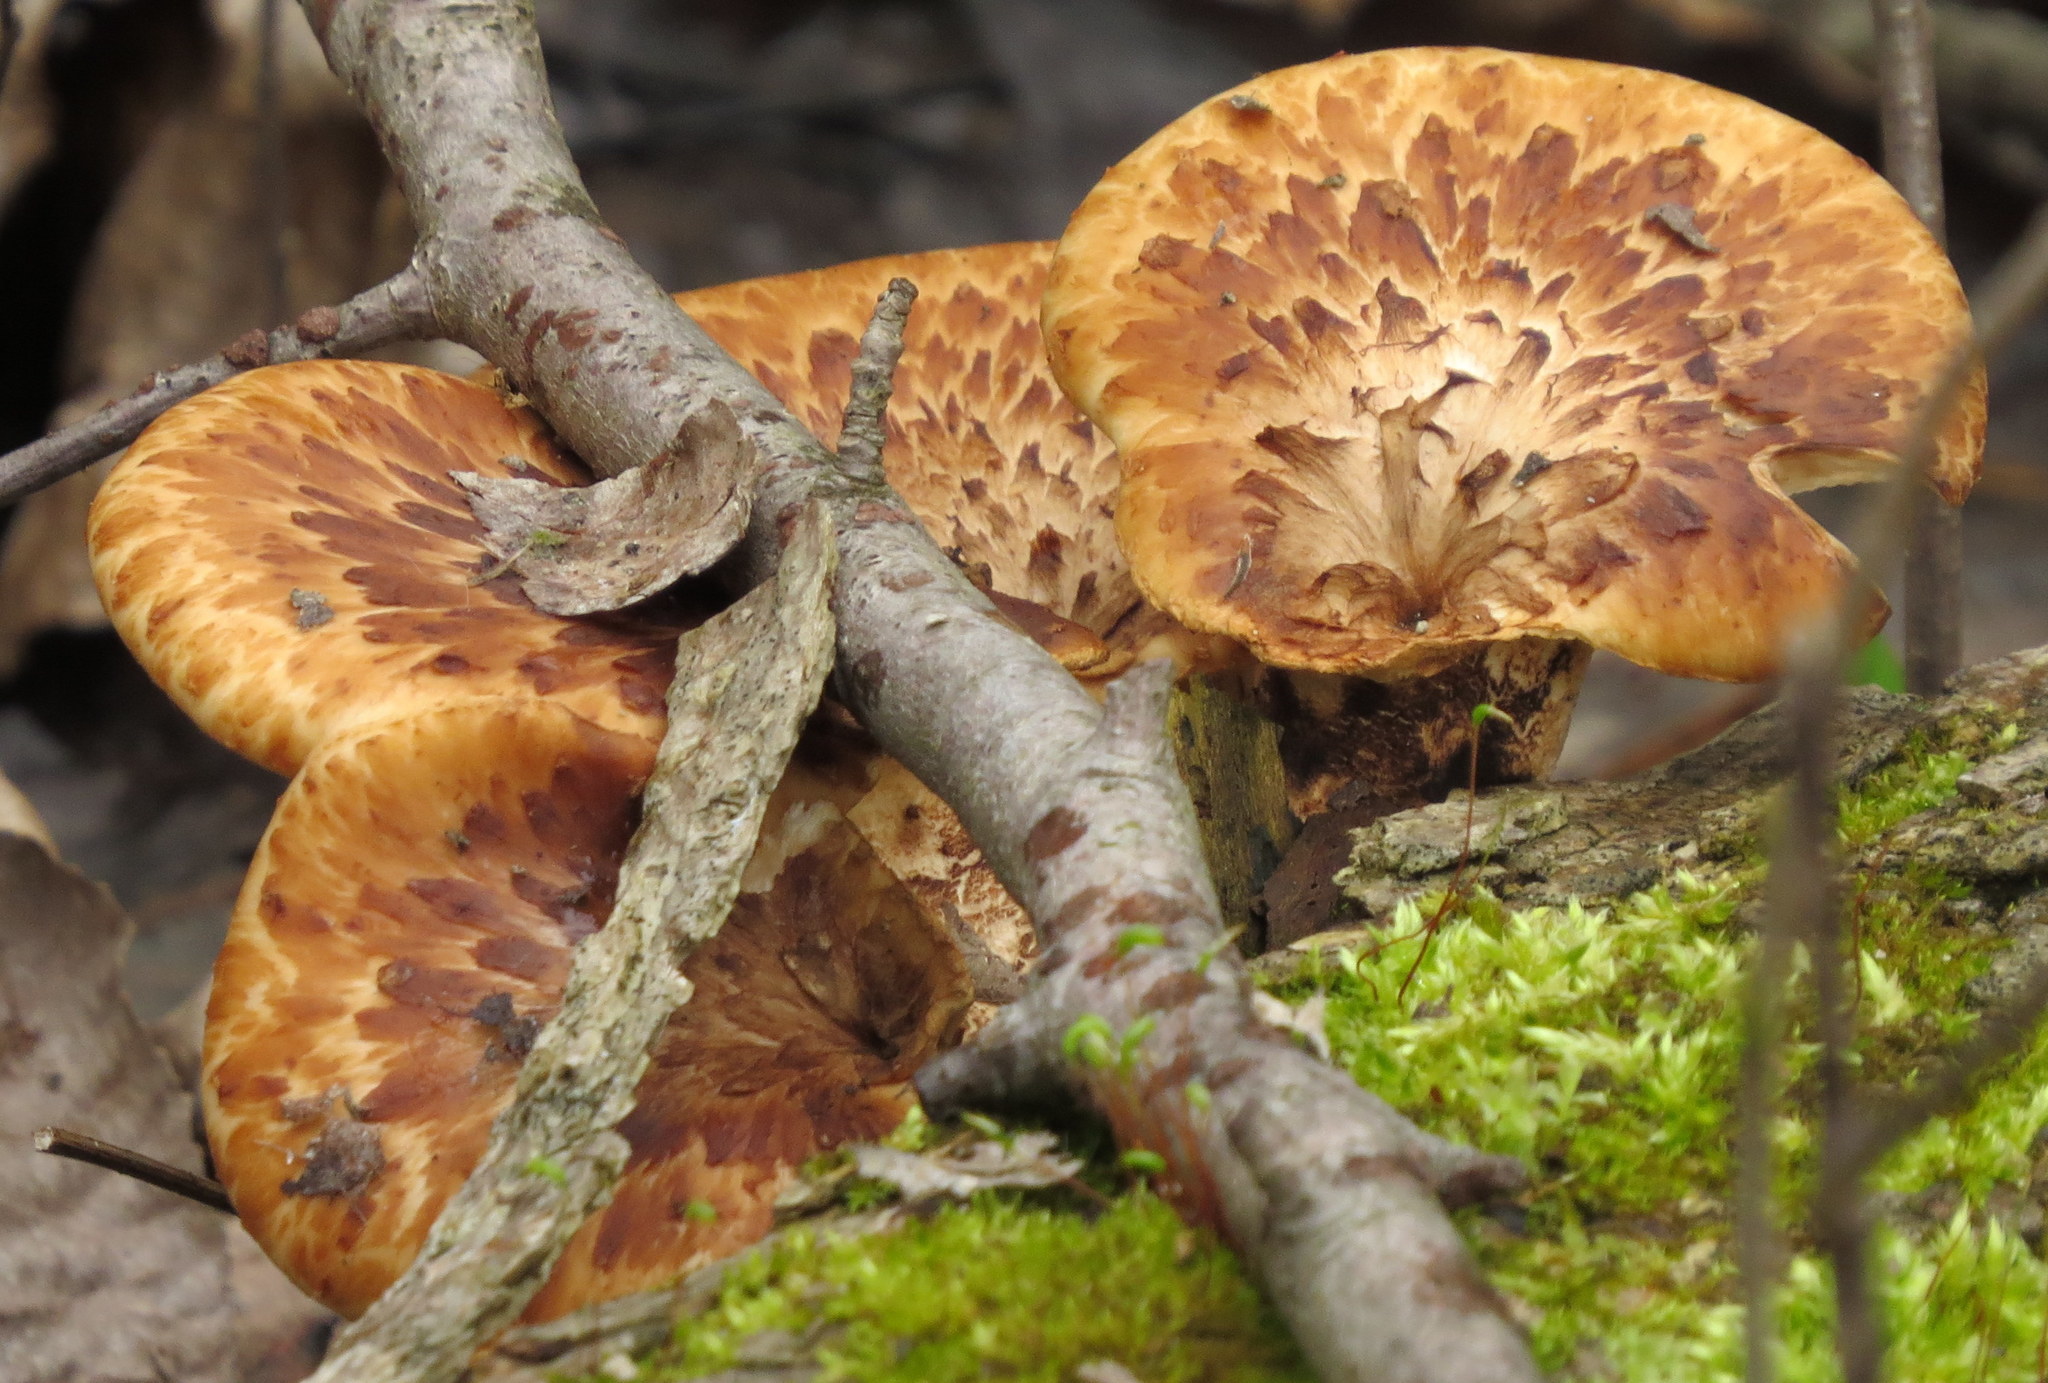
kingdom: Fungi
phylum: Basidiomycota
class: Agaricomycetes
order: Polyporales
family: Polyporaceae
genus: Cerioporus
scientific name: Cerioporus squamosus
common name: Dryad's saddle
